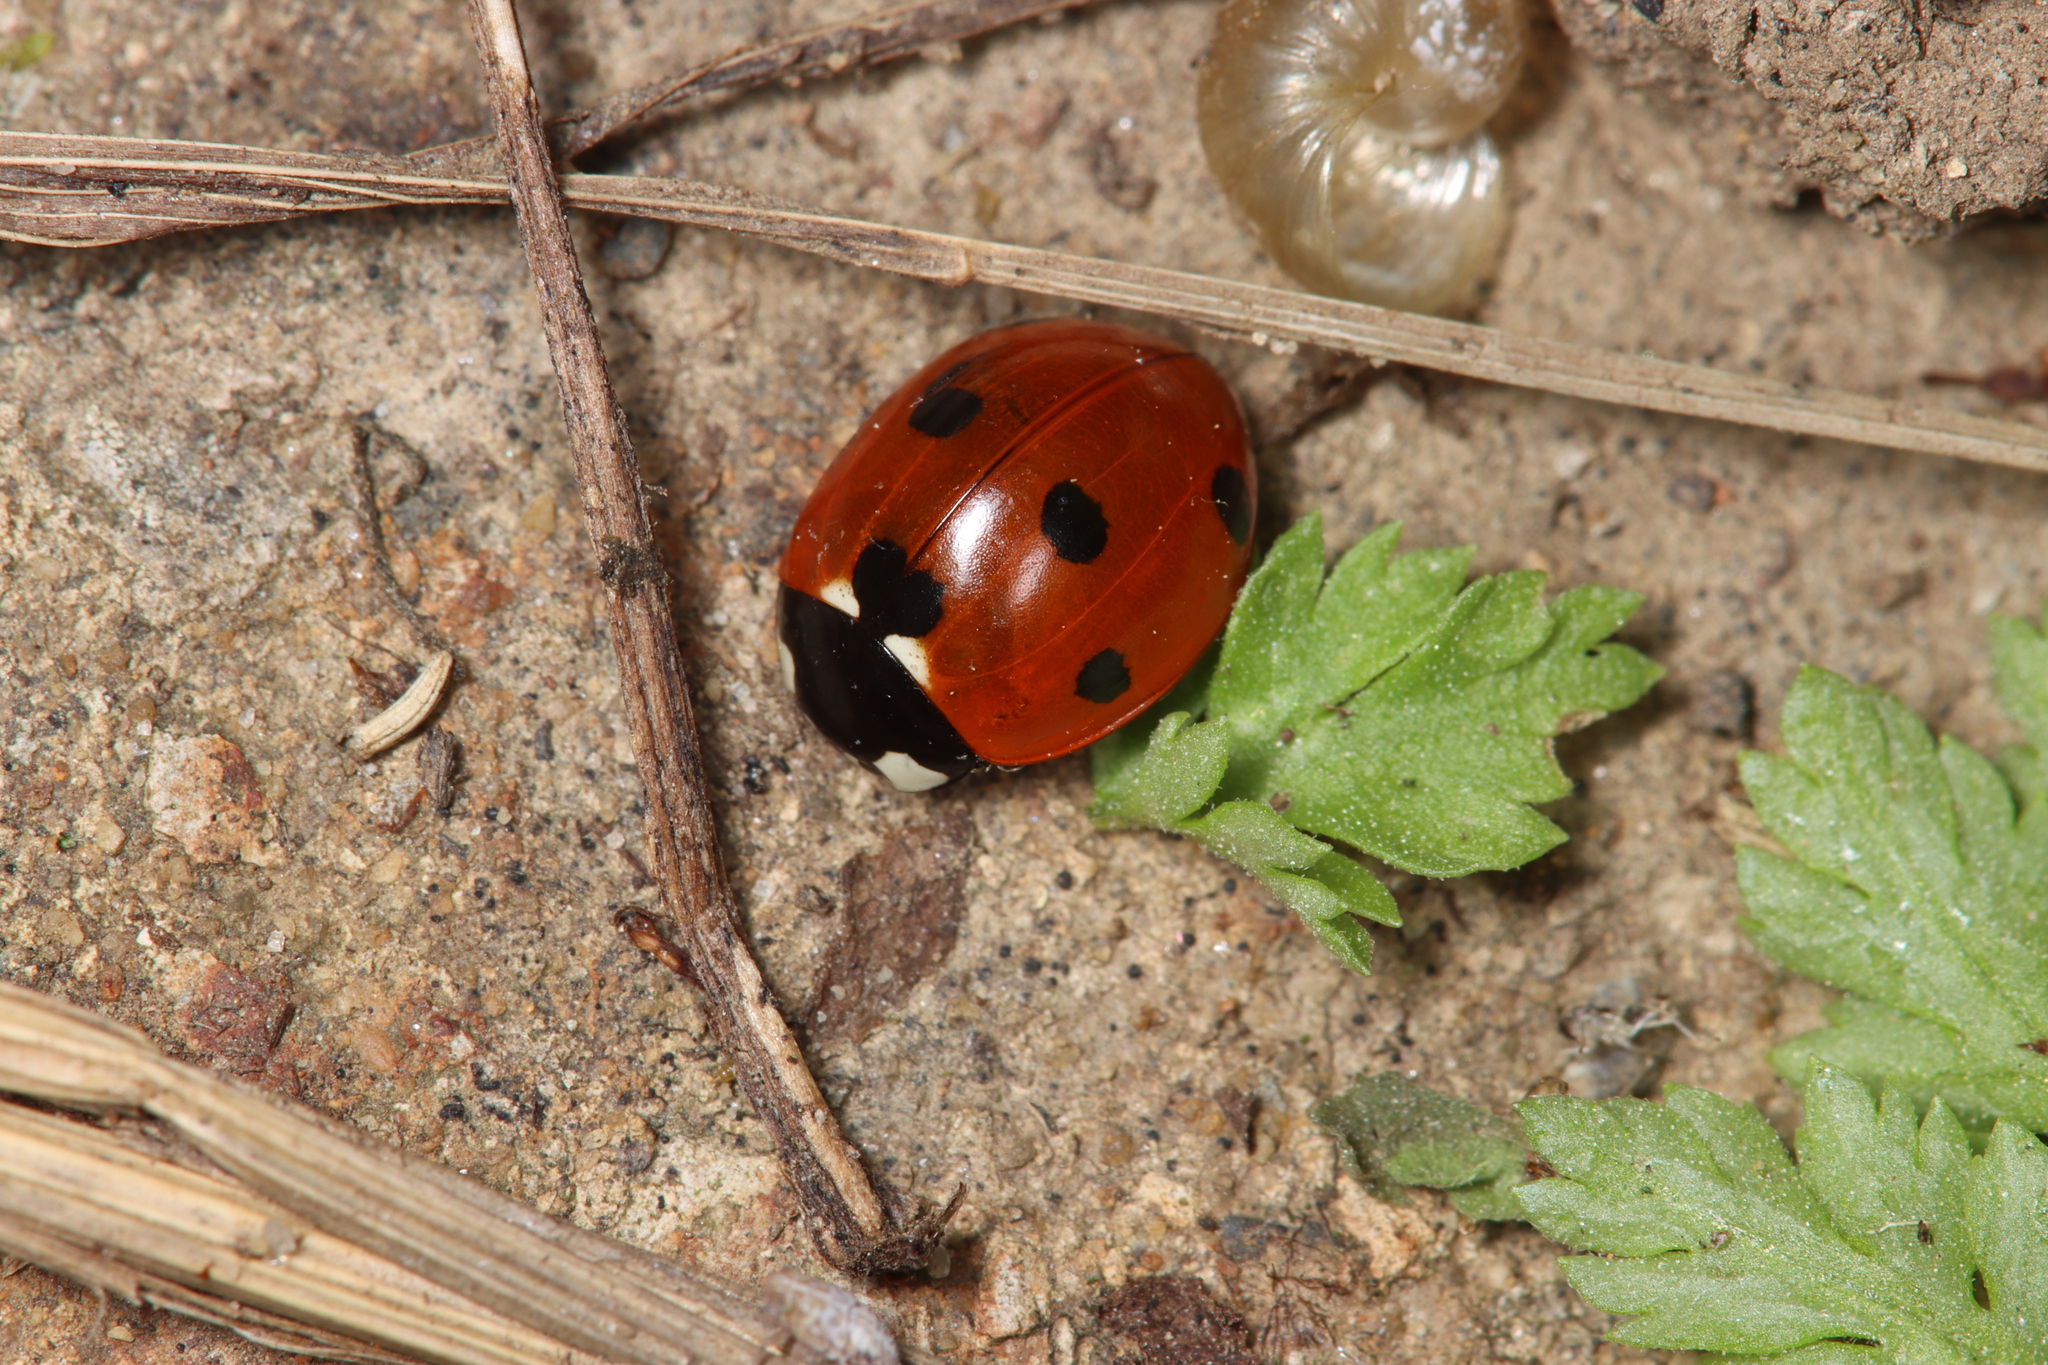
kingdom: Animalia
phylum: Arthropoda
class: Insecta
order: Coleoptera
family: Coccinellidae
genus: Coccinella
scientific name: Coccinella septempunctata
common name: Sevenspotted lady beetle
